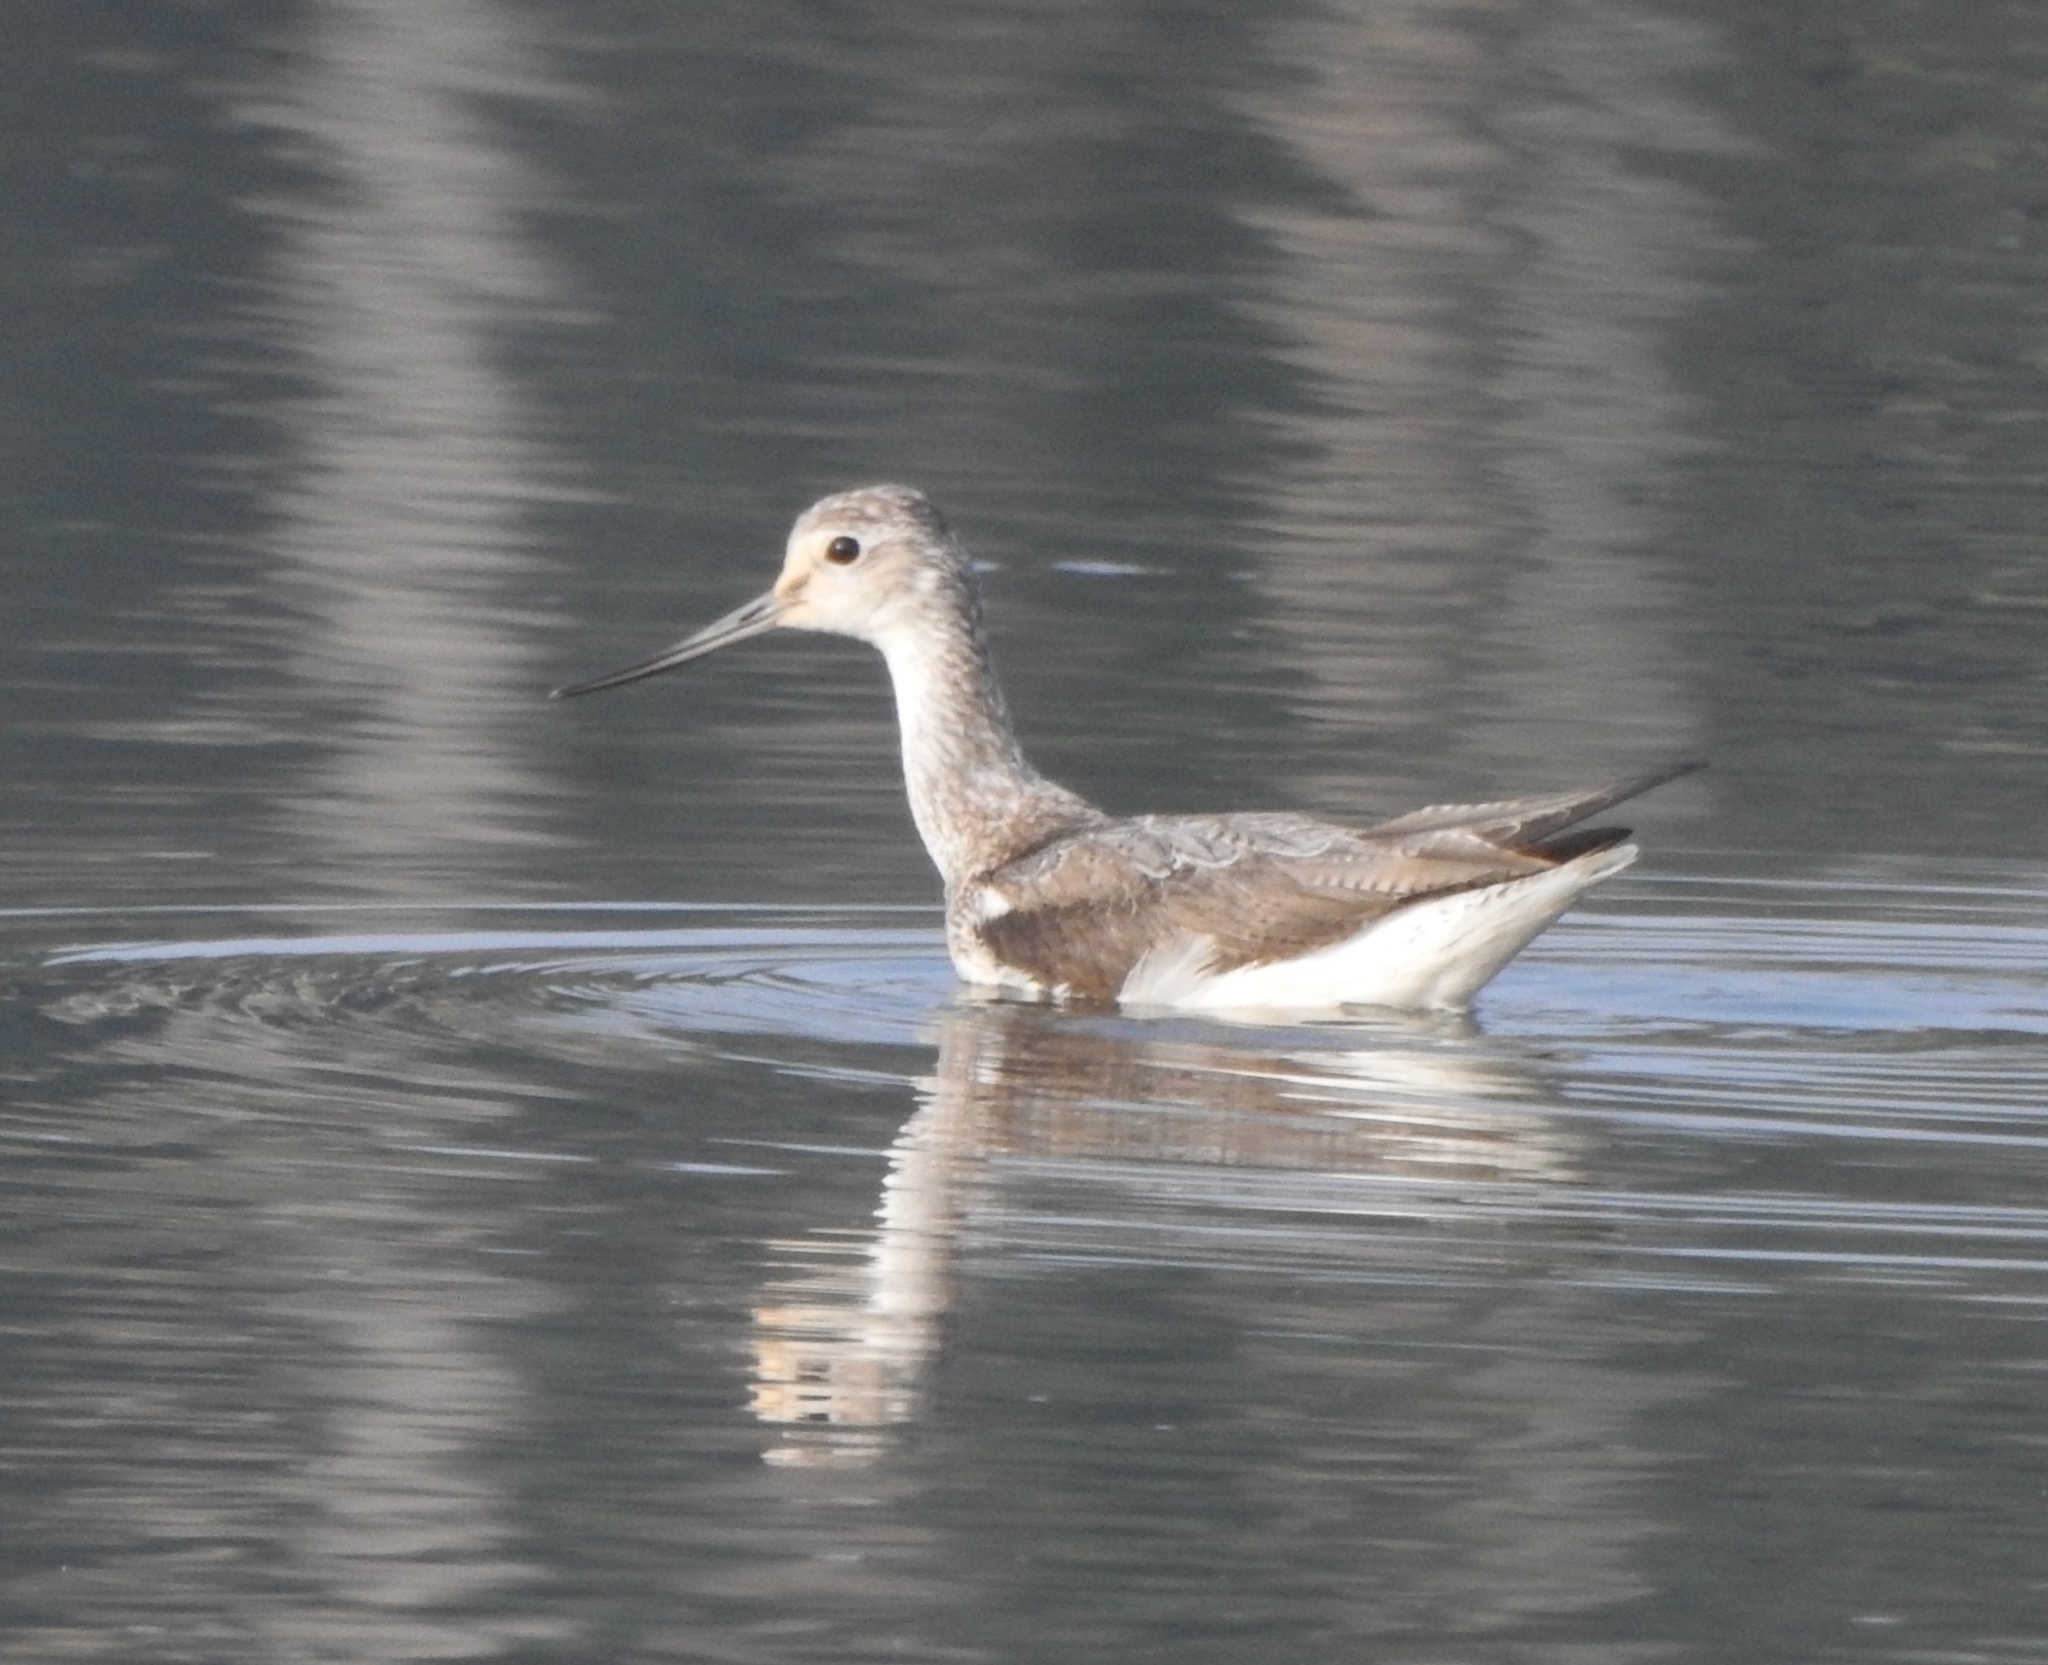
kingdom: Animalia
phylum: Chordata
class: Aves
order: Charadriiformes
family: Scolopacidae
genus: Tringa
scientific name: Tringa nebularia
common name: Common greenshank
